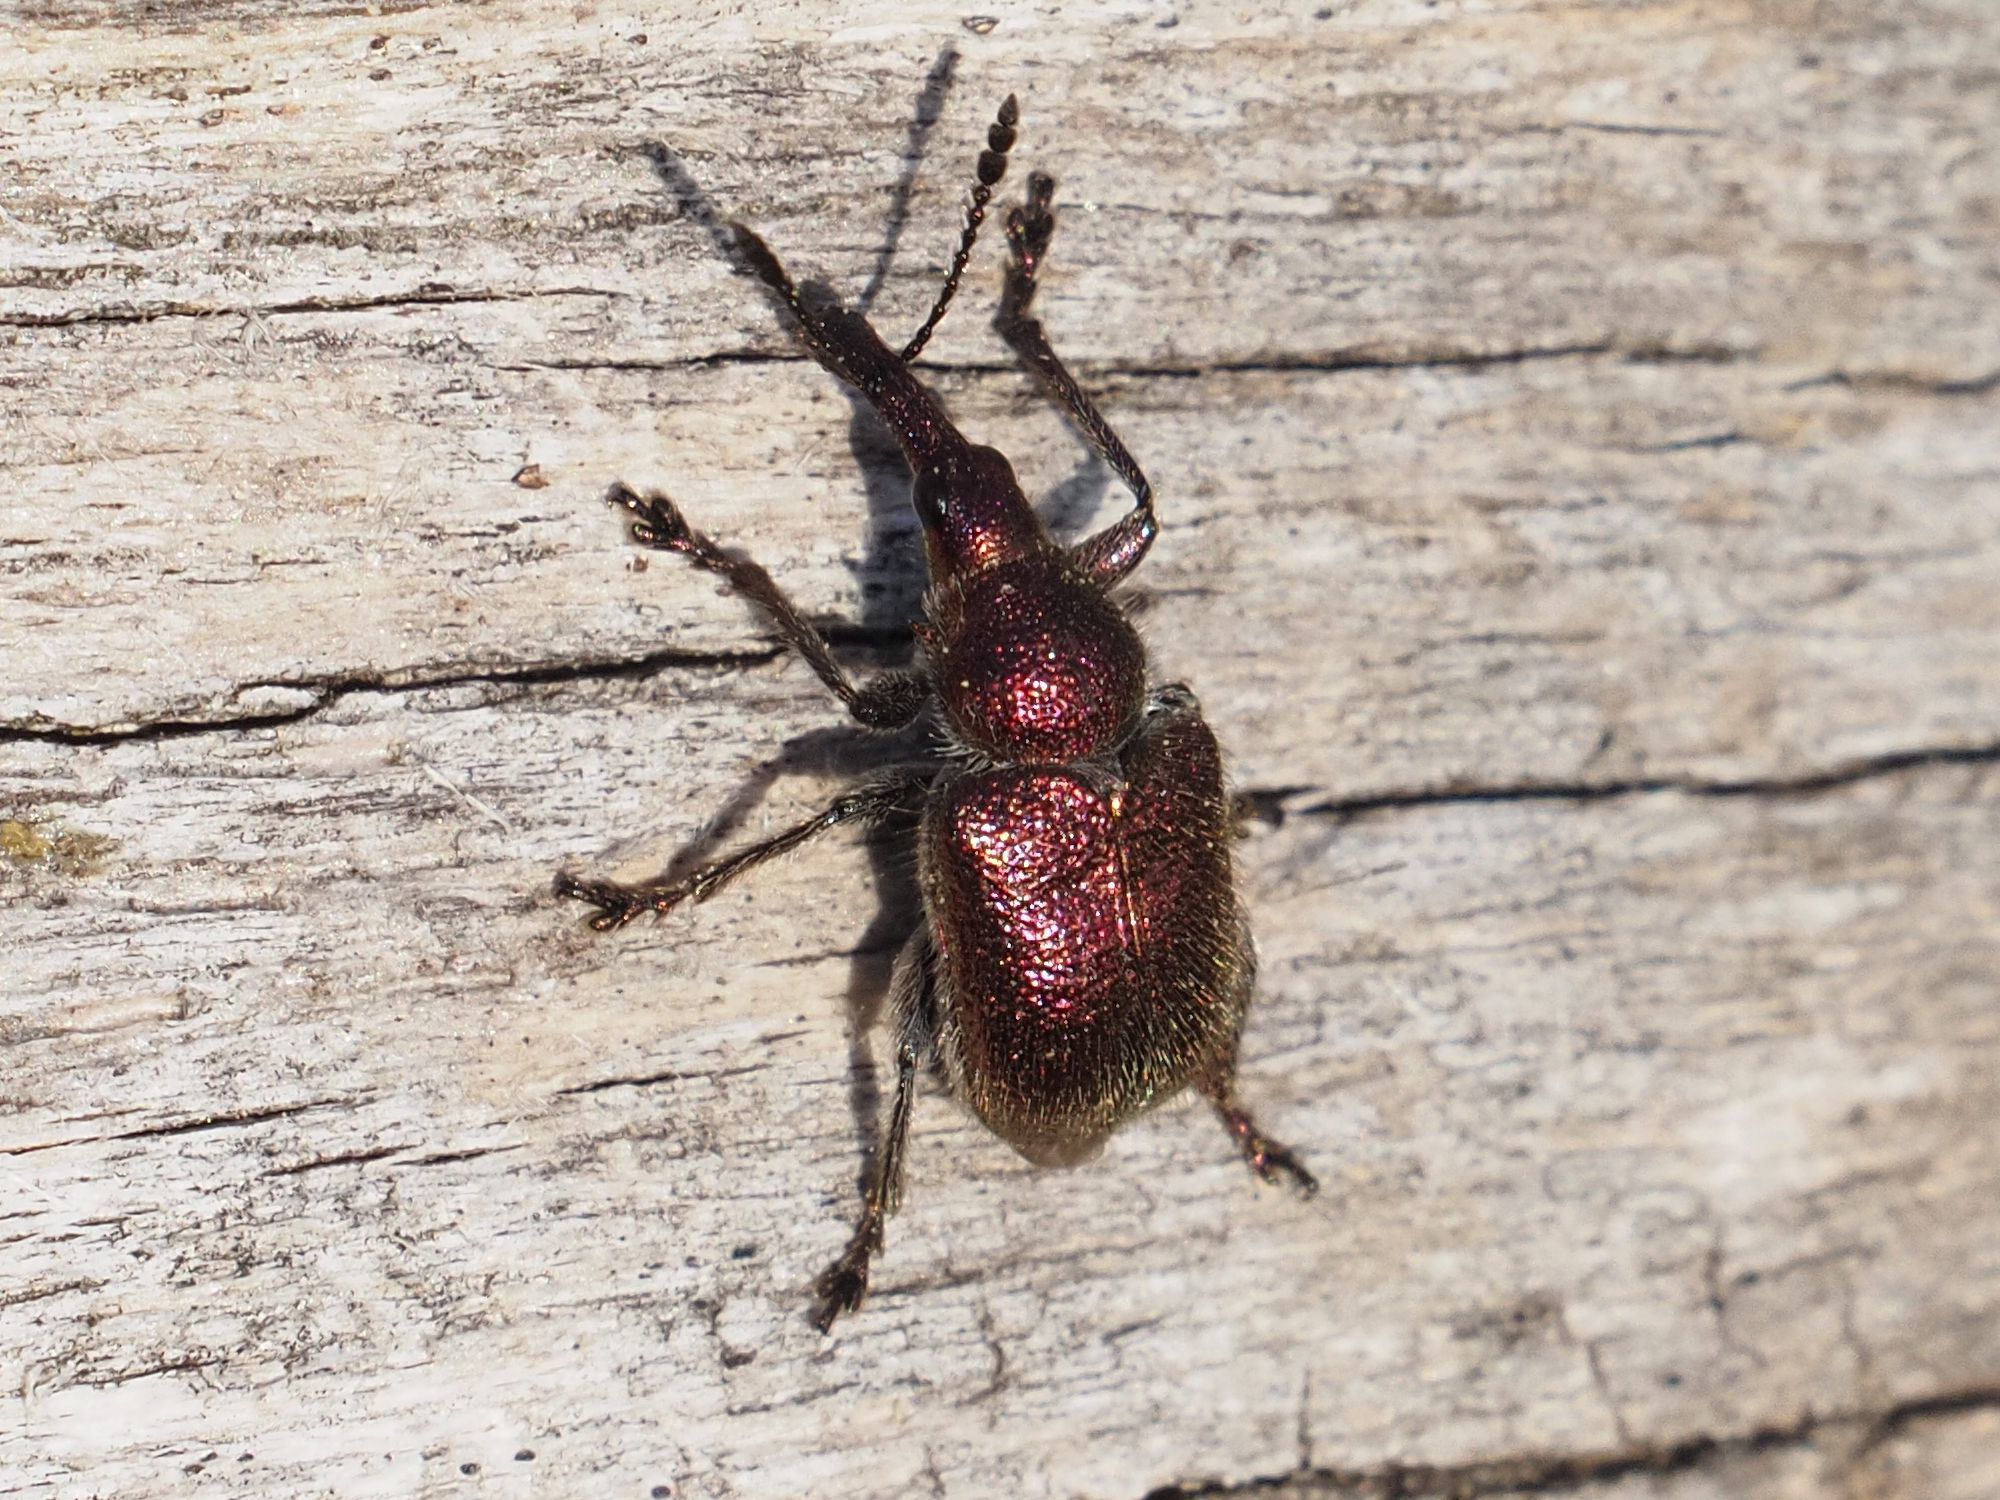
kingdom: Animalia
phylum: Arthropoda
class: Insecta
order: Coleoptera
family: Attelabidae
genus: Rhynchites
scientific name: Rhynchites auratus
